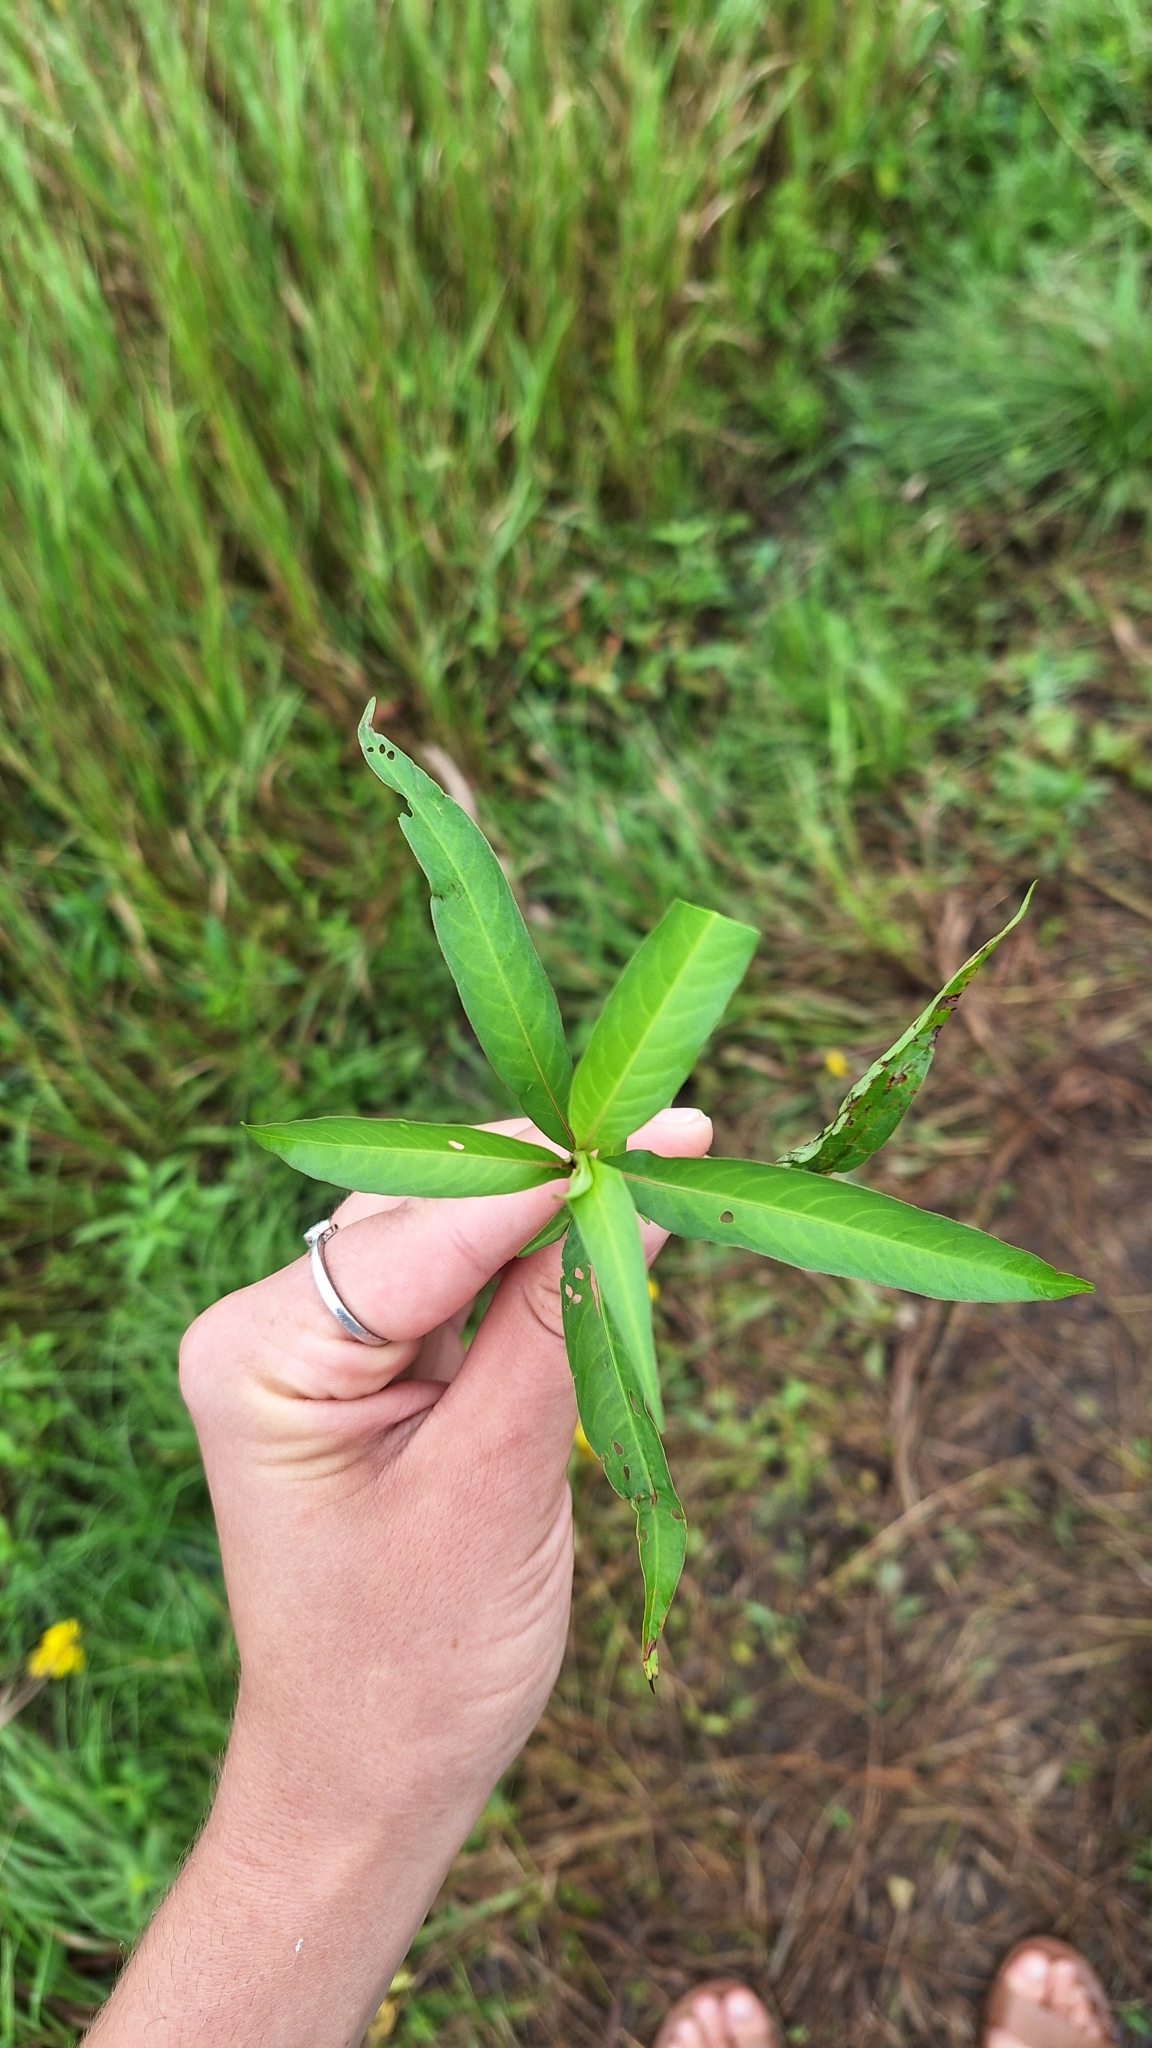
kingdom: Plantae
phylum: Tracheophyta
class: Magnoliopsida
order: Caryophyllales
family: Polygonaceae
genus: Persicaria
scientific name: Persicaria hydropiper
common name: Water-pepper
